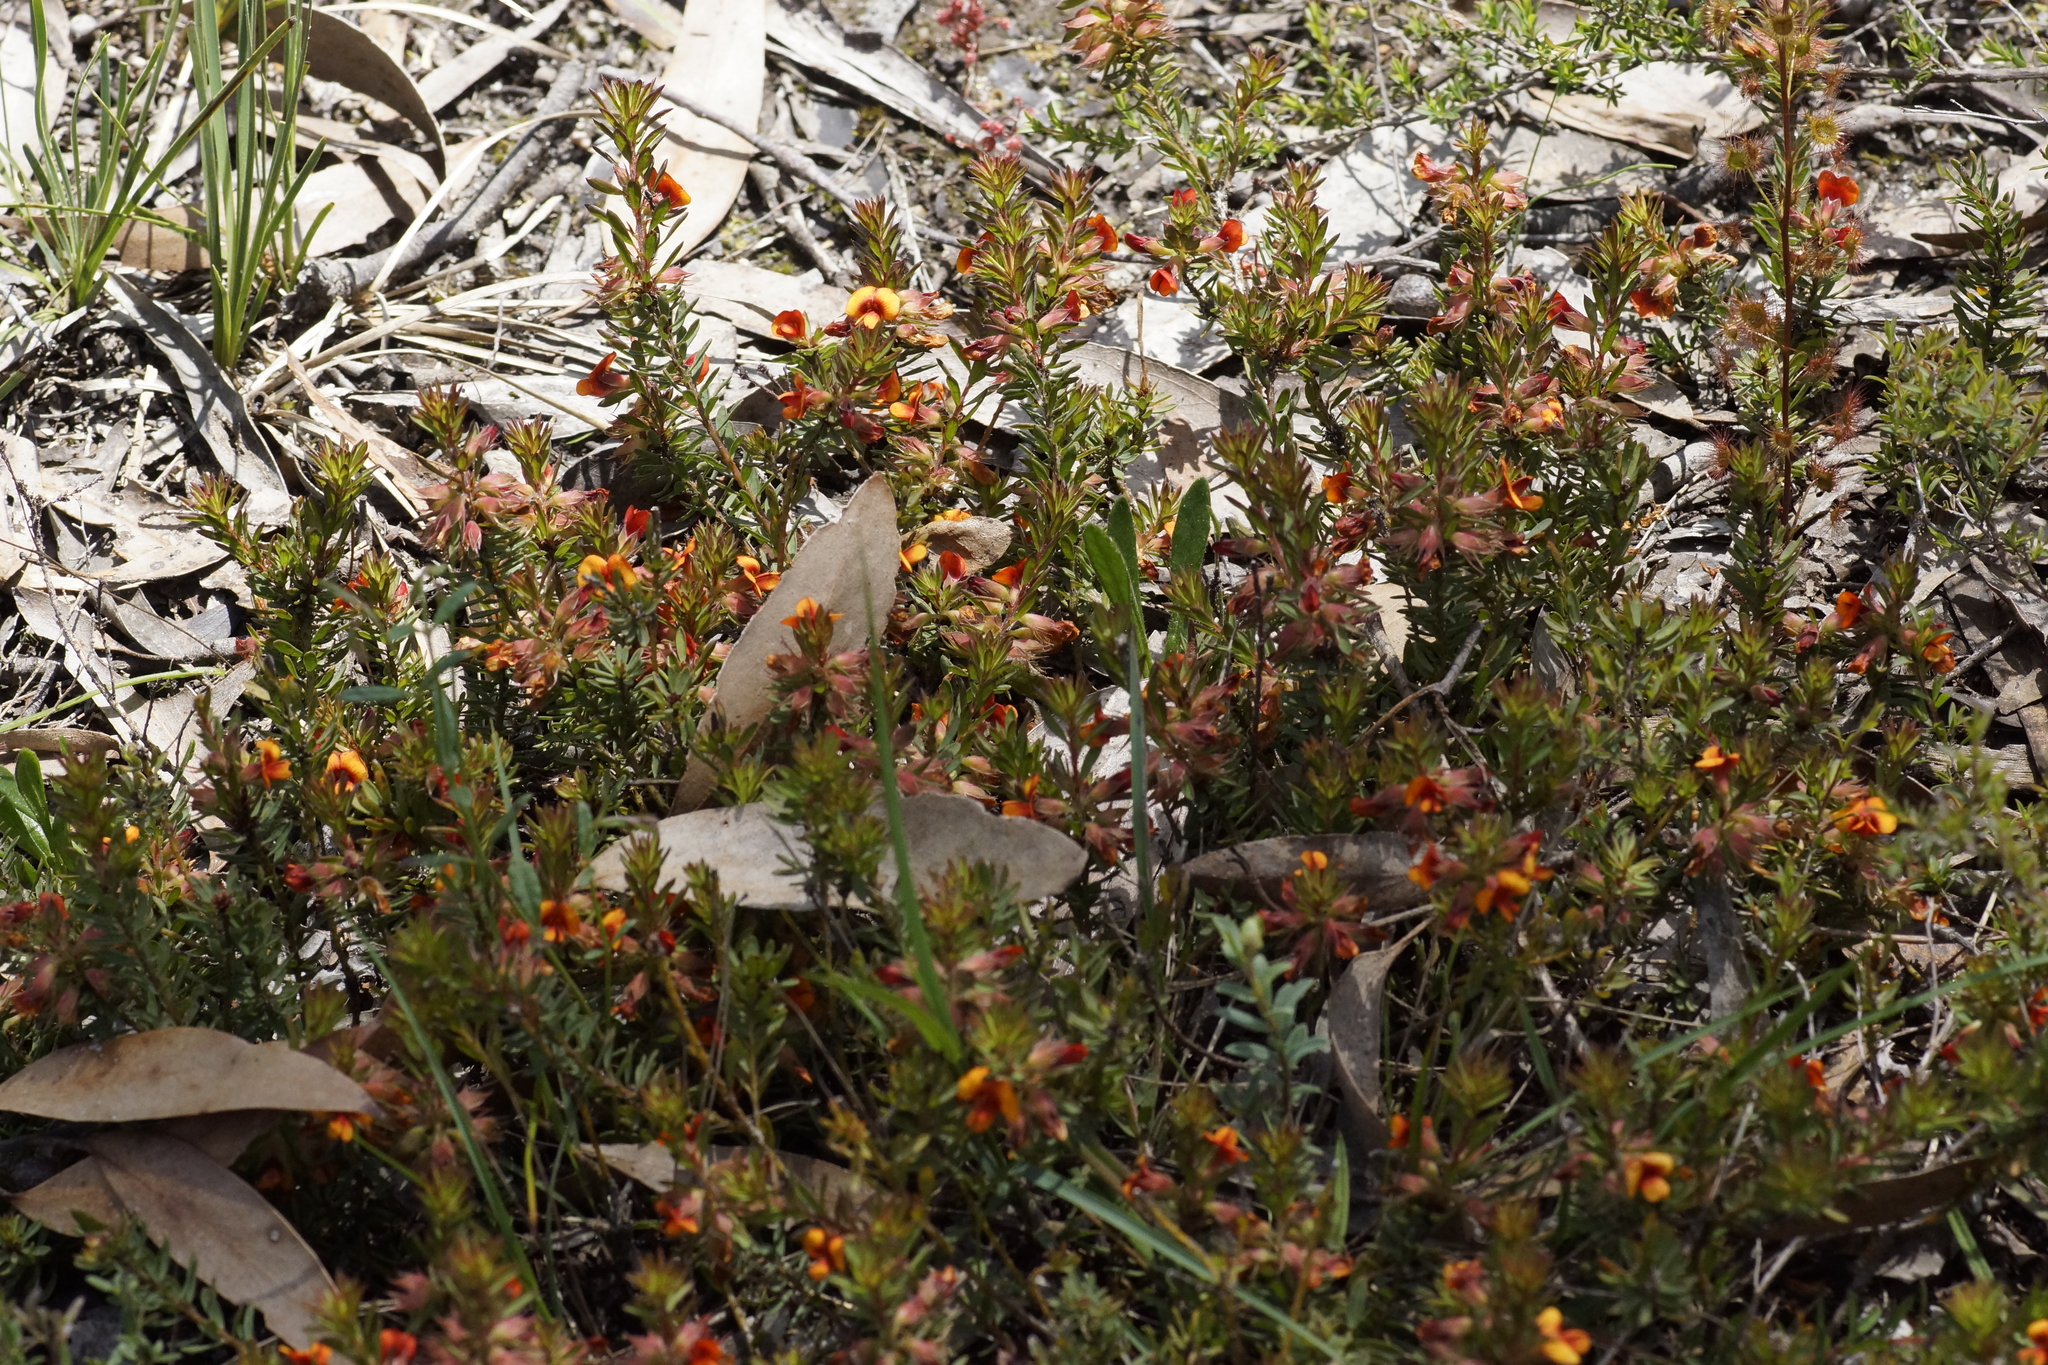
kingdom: Plantae
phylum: Tracheophyta
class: Magnoliopsida
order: Fabales
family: Fabaceae
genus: Pultenaea
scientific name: Pultenaea humilis
